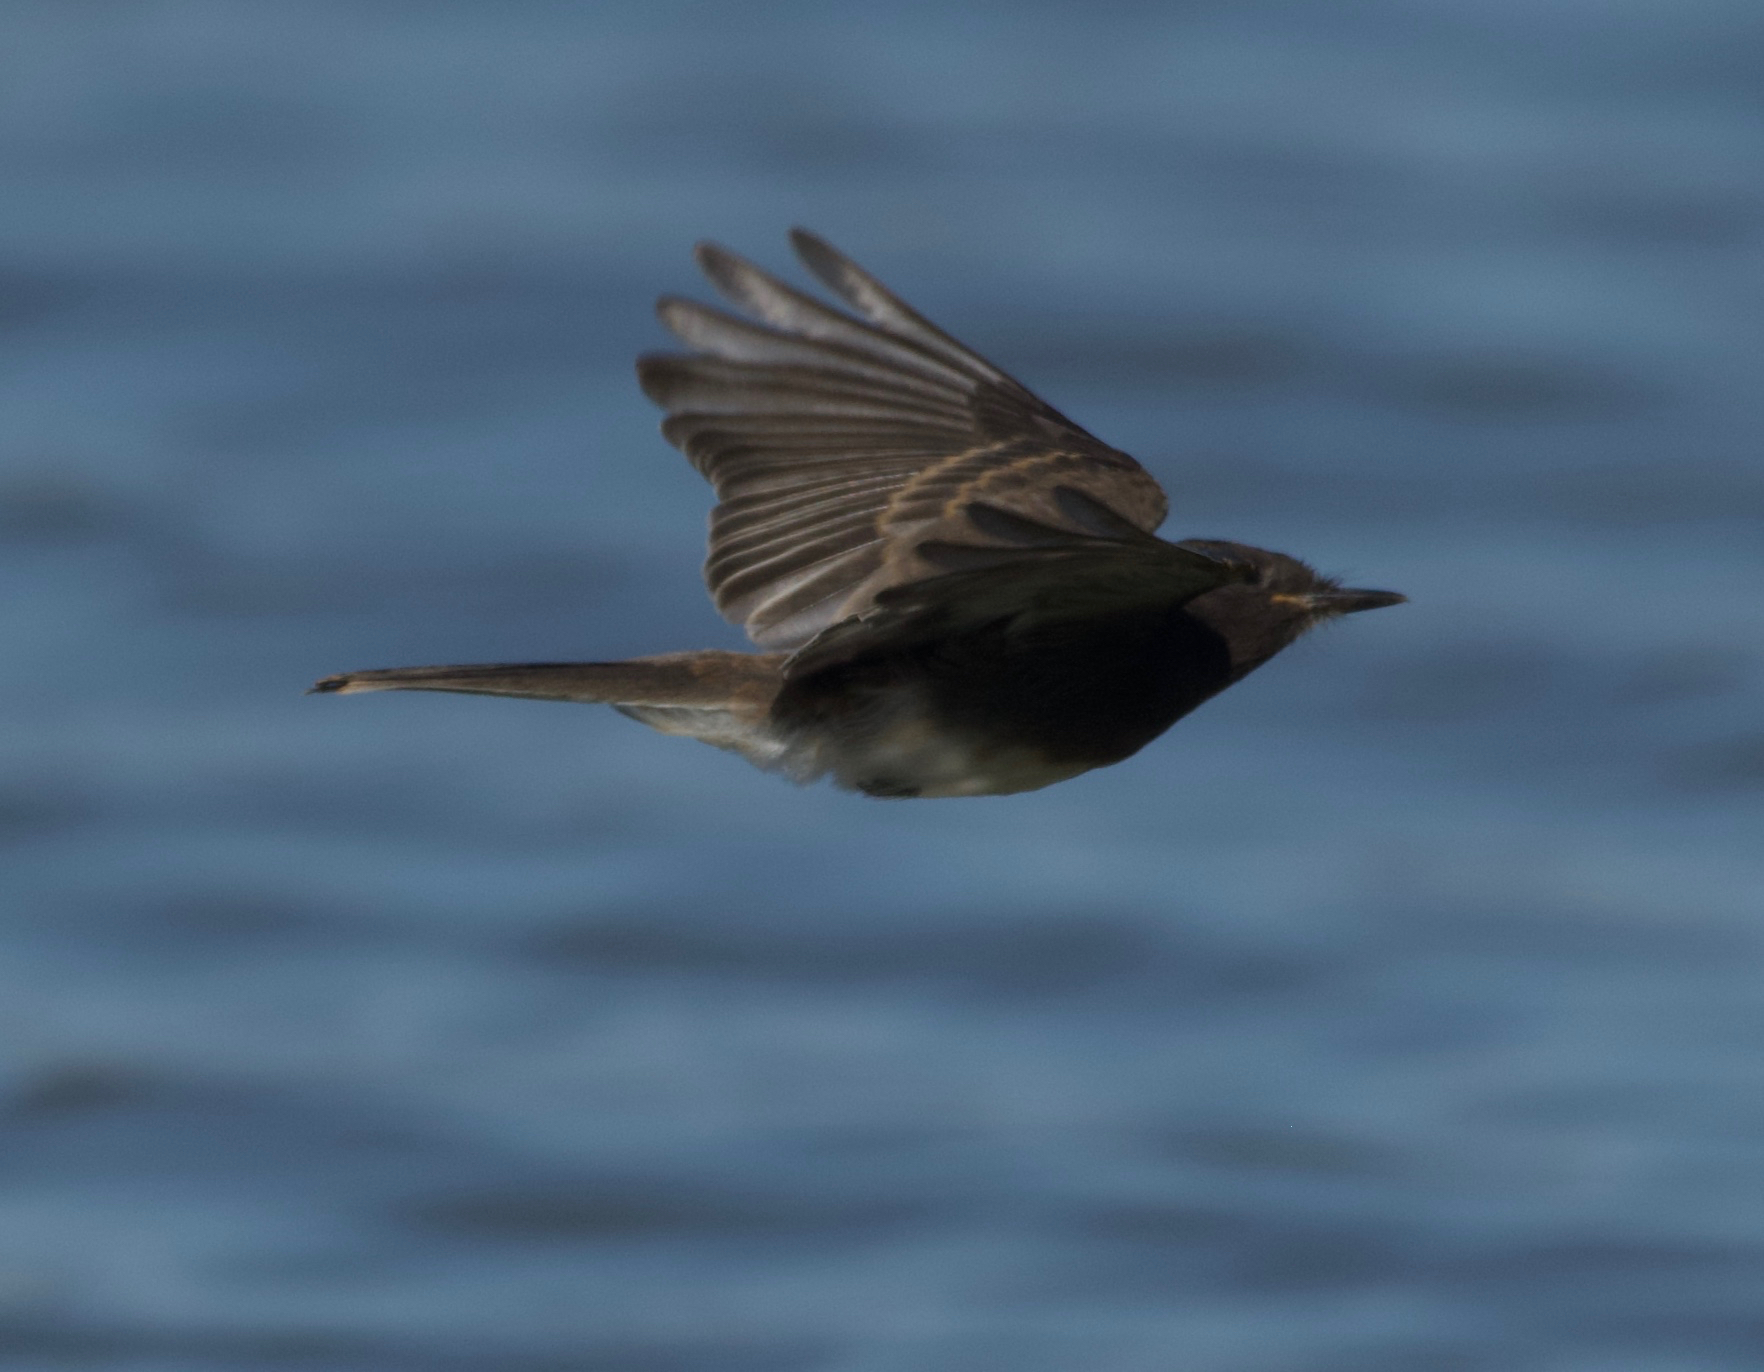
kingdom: Animalia
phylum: Chordata
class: Aves
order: Passeriformes
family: Tyrannidae
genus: Sayornis
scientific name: Sayornis nigricans
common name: Black phoebe
